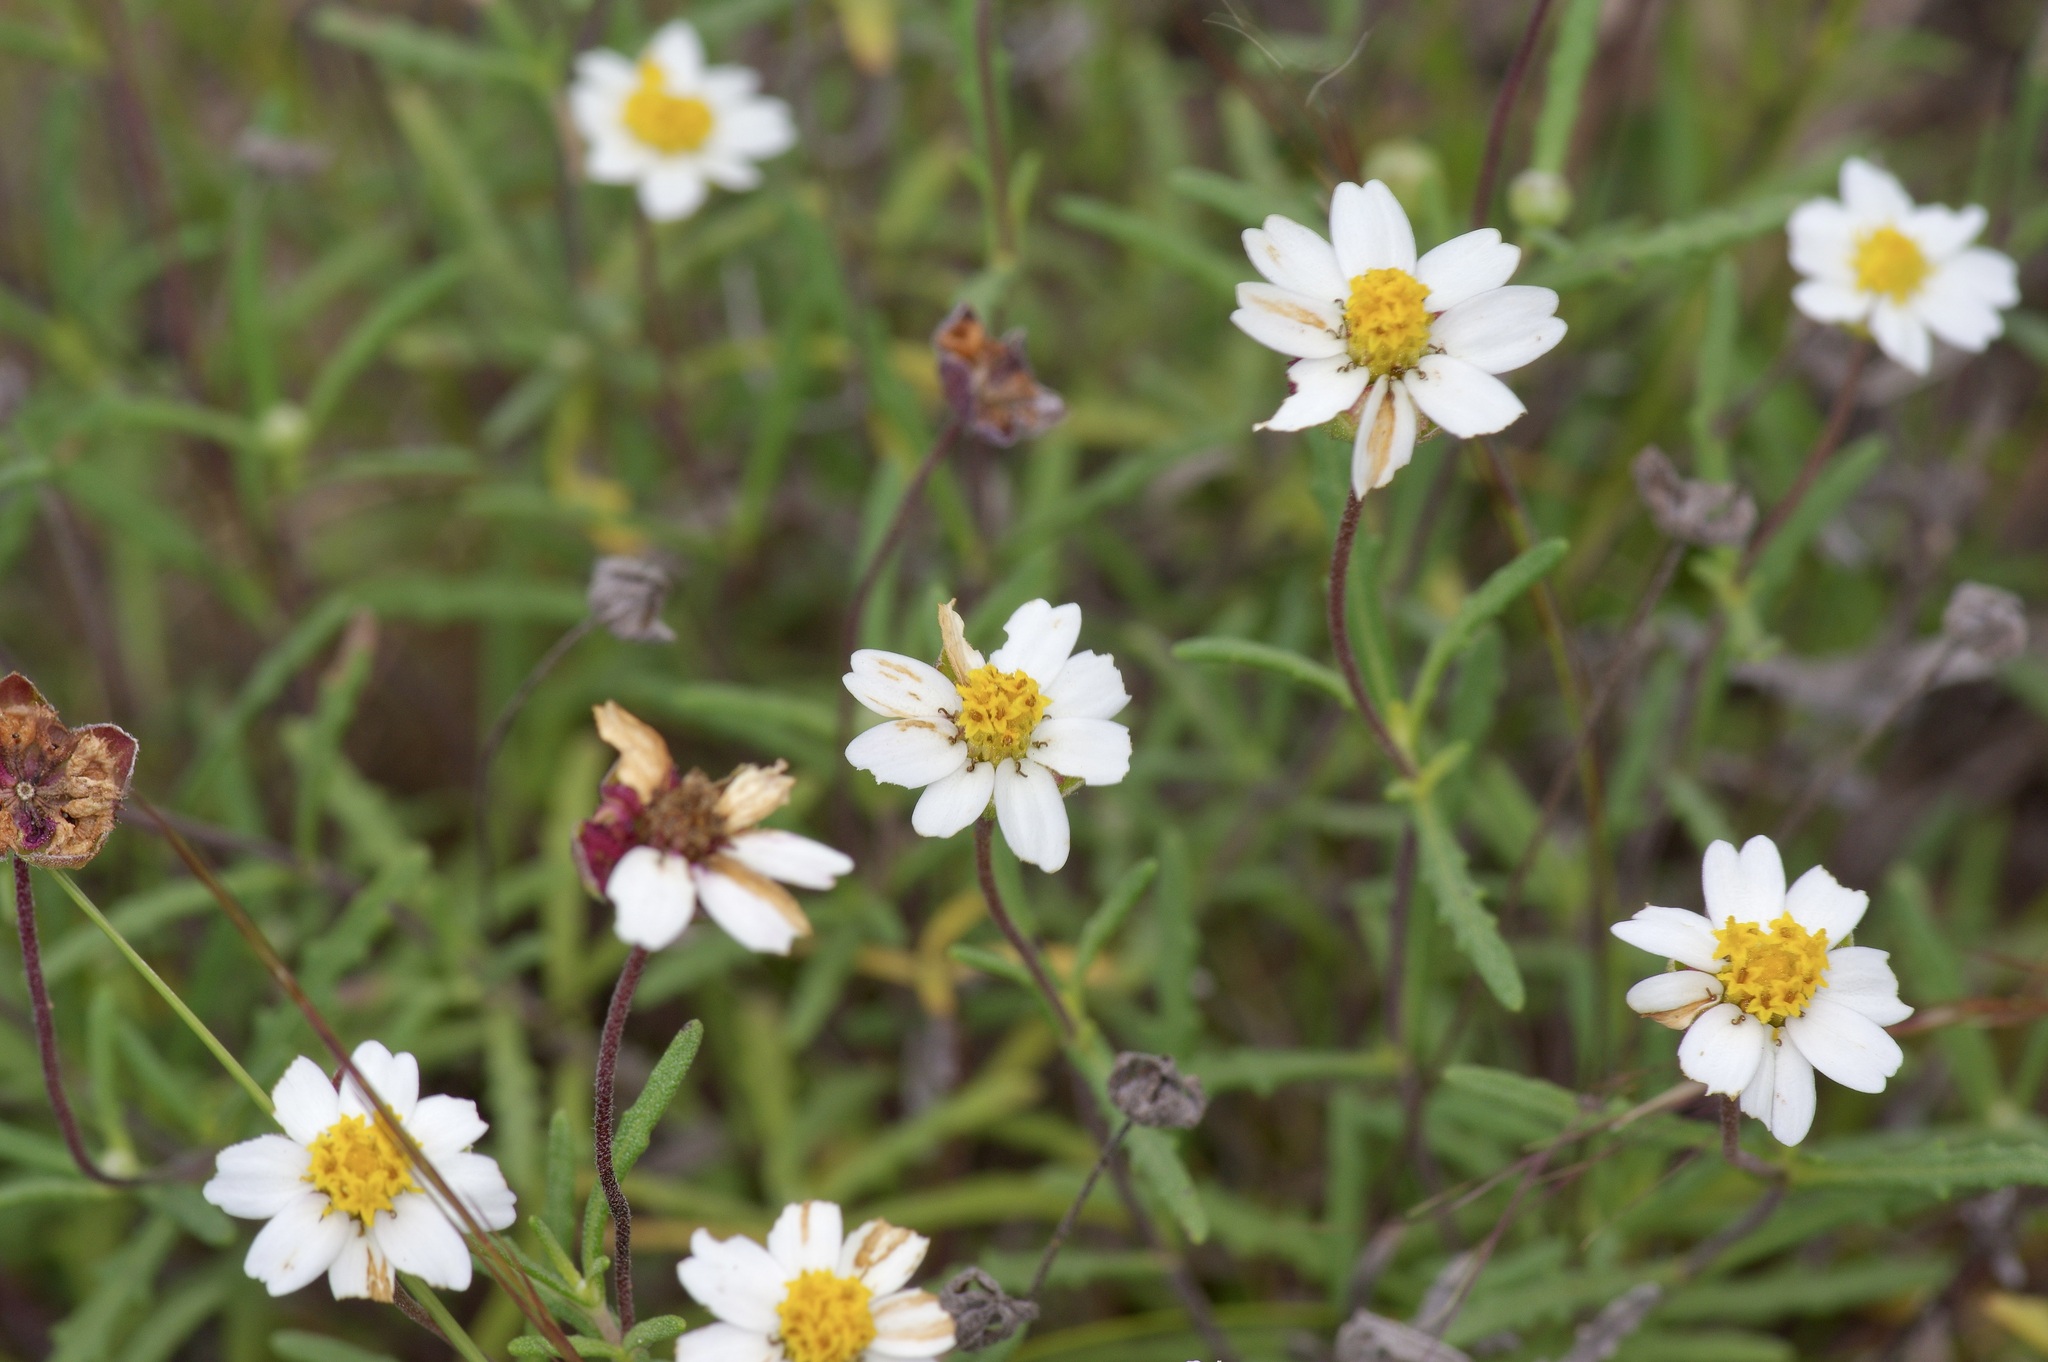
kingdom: Plantae
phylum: Tracheophyta
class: Magnoliopsida
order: Asterales
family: Asteraceae
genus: Melampodium
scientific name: Melampodium cinereum
